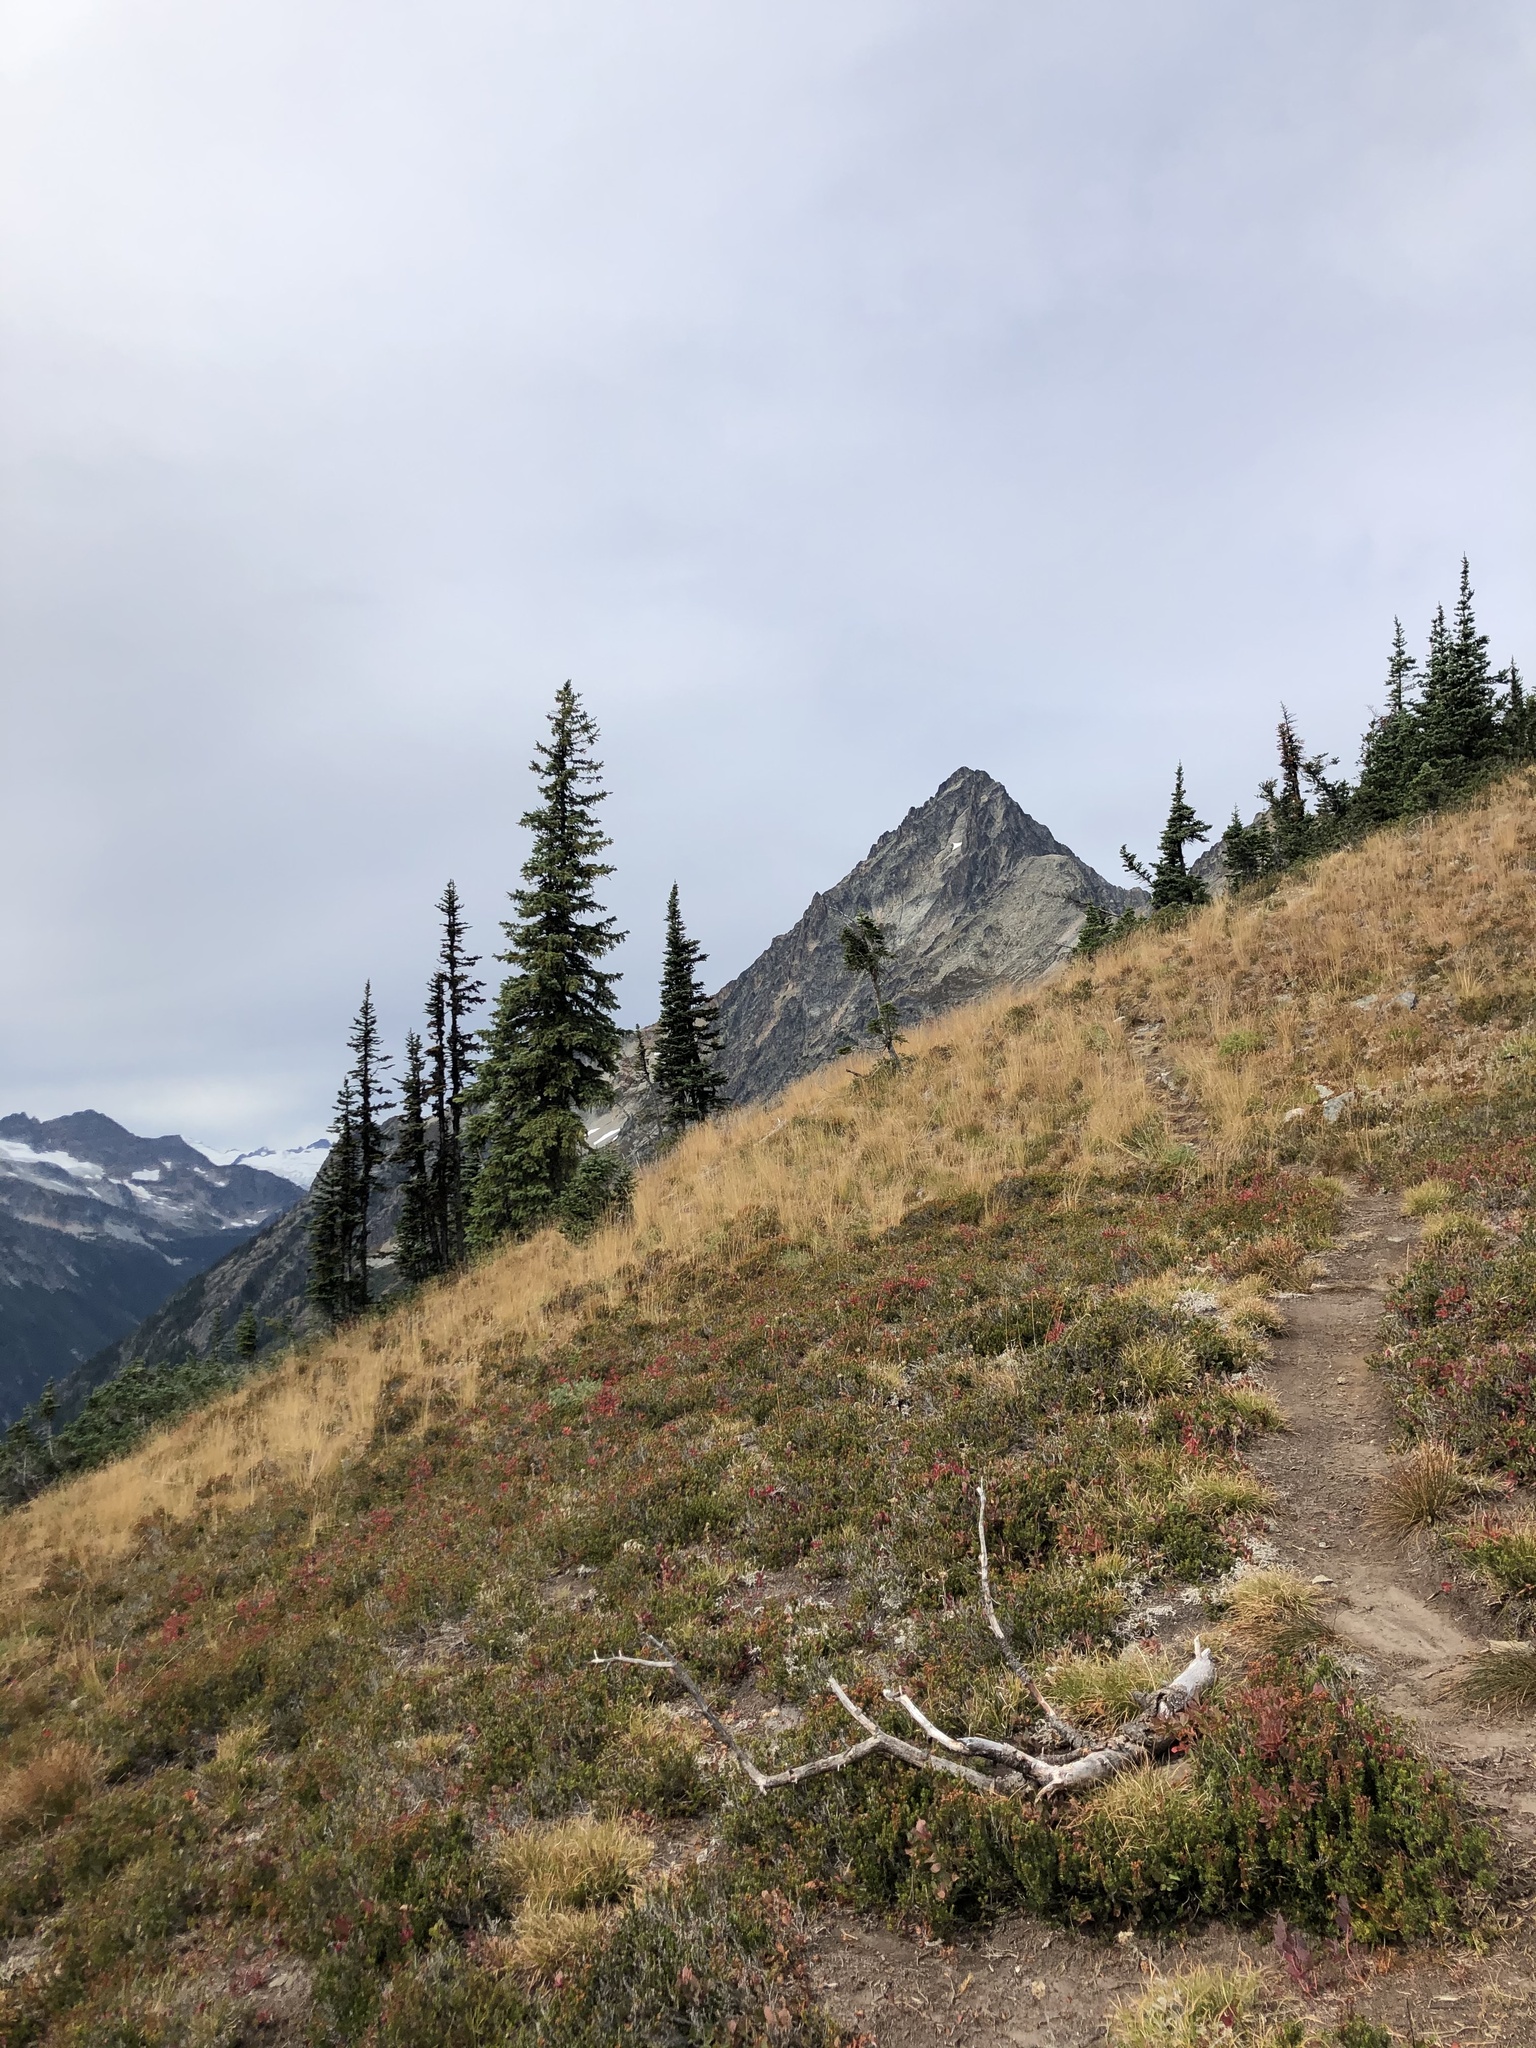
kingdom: Plantae
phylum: Tracheophyta
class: Pinopsida
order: Pinales
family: Pinaceae
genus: Picea
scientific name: Picea engelmannii
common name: Engelmann spruce
